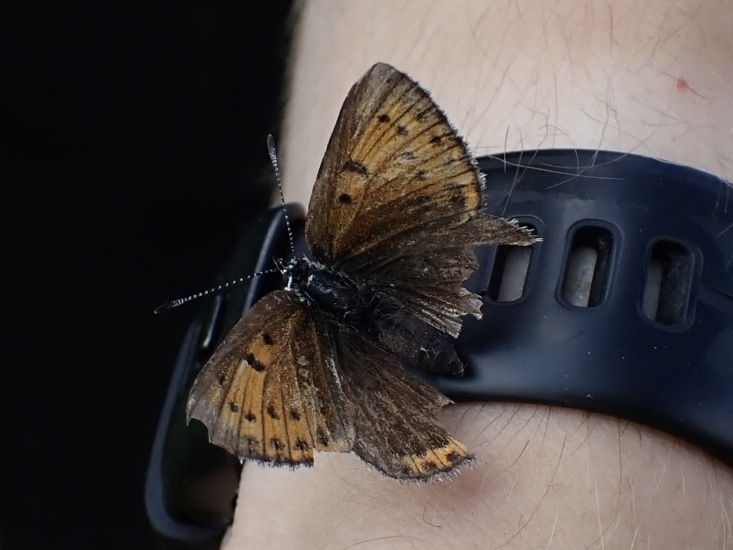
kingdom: Animalia
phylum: Arthropoda
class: Insecta
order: Lepidoptera
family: Lycaenidae
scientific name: Lycaenidae
